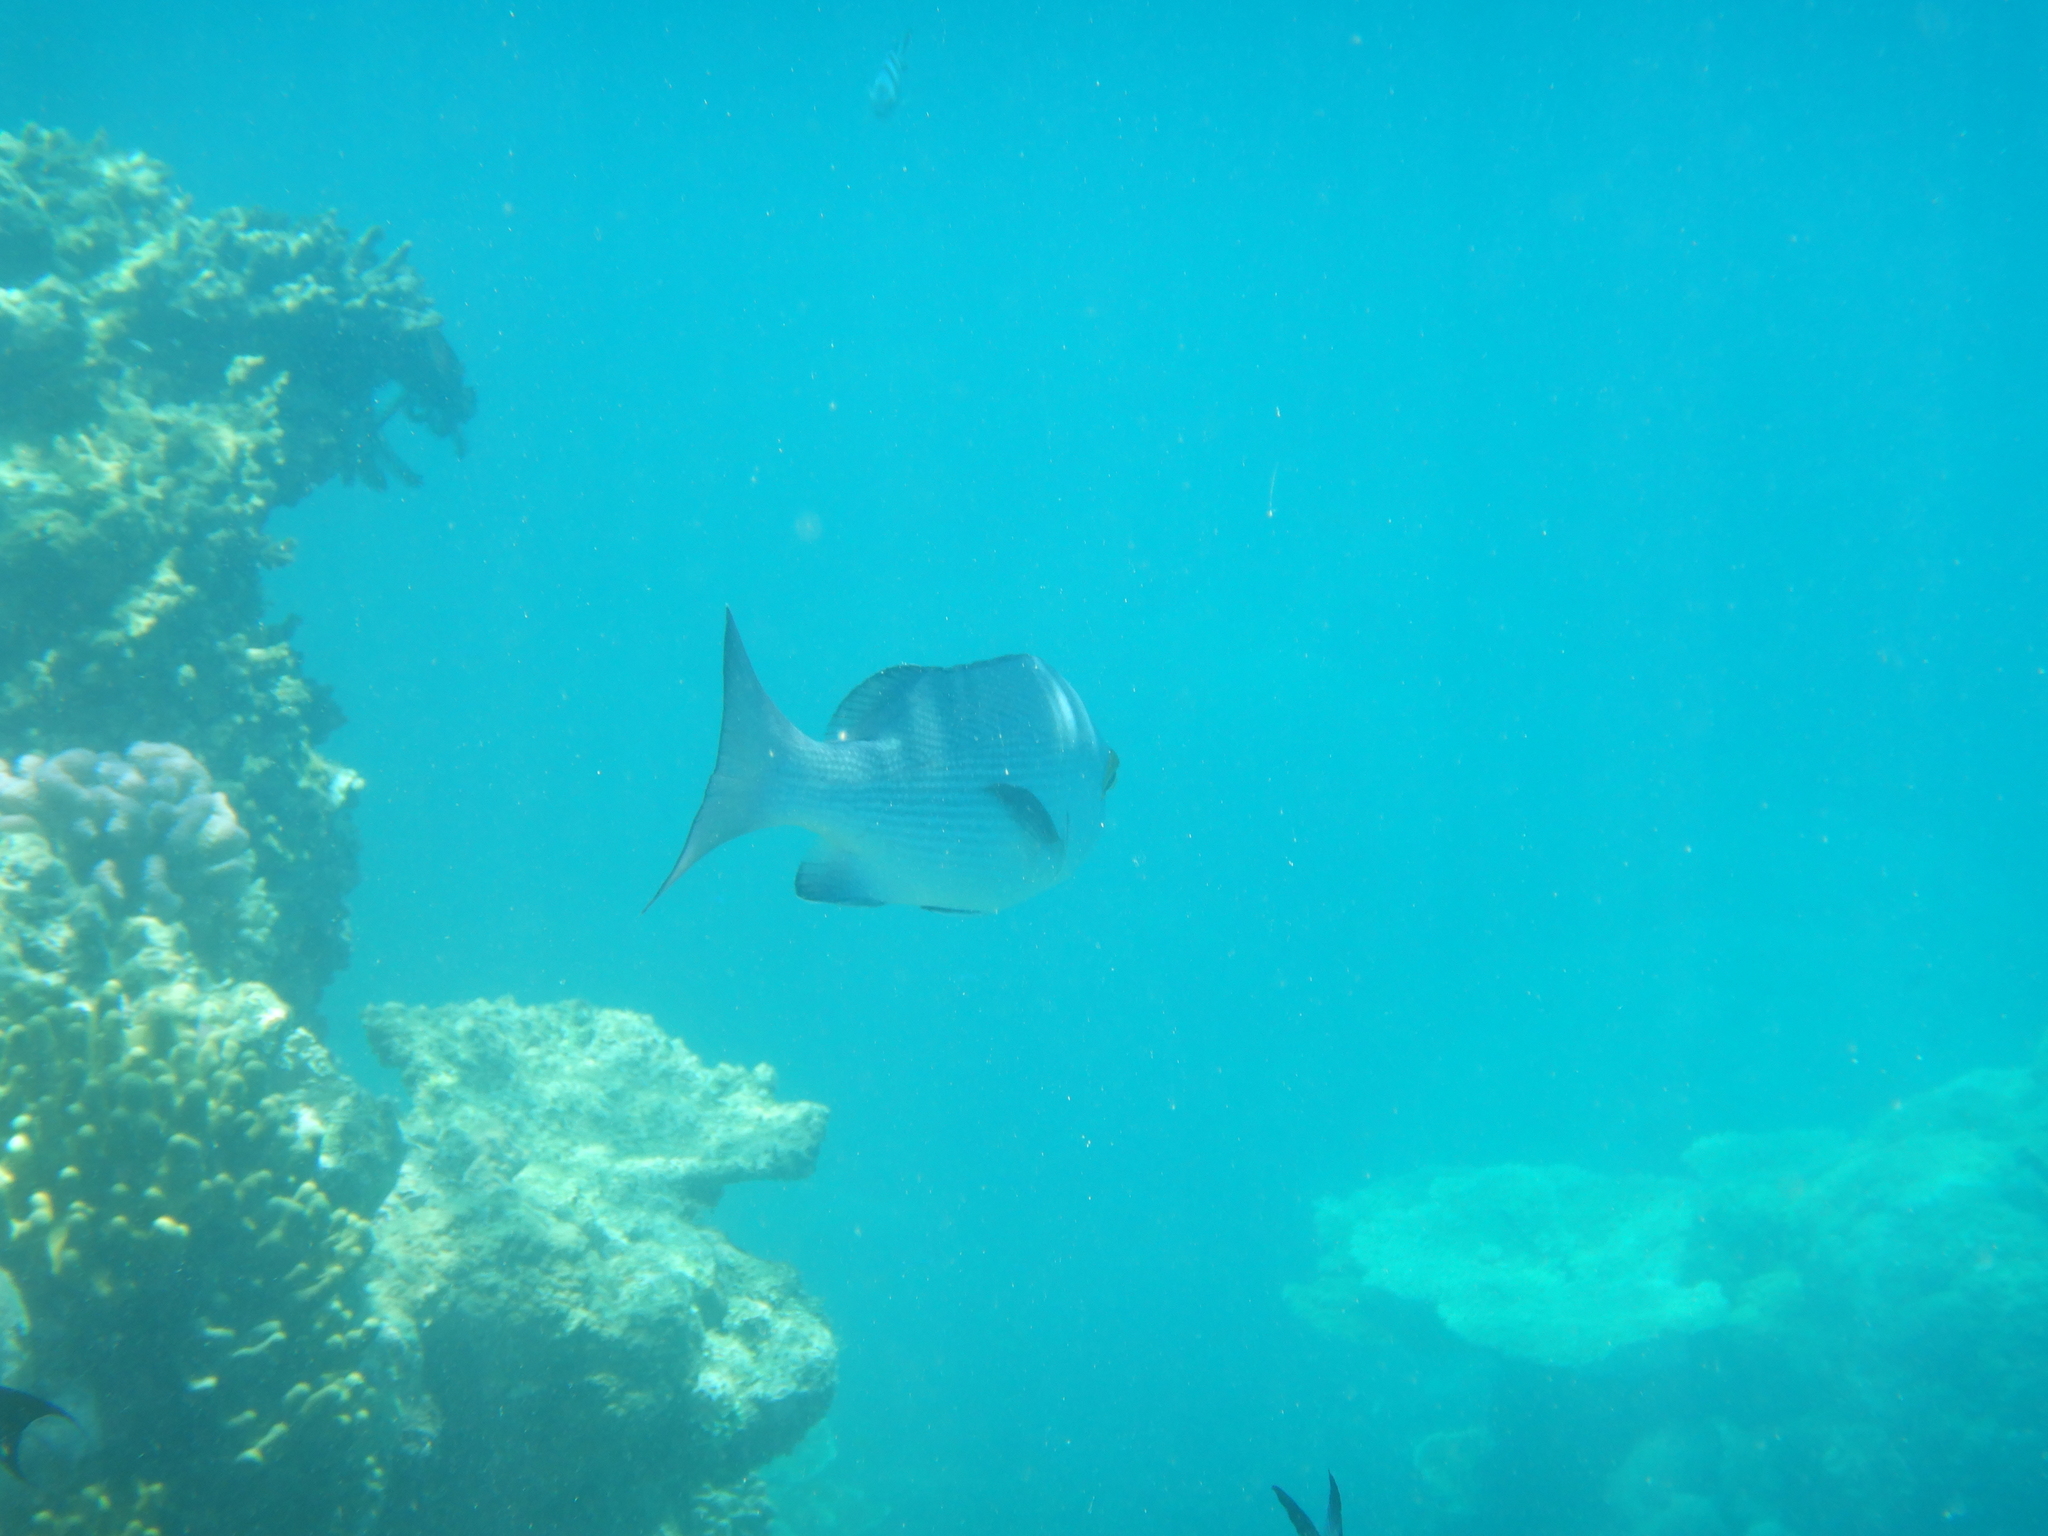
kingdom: Animalia
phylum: Chordata
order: Perciformes
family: Lutjanidae
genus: Lutjanus
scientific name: Lutjanus bohar
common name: Red bass
